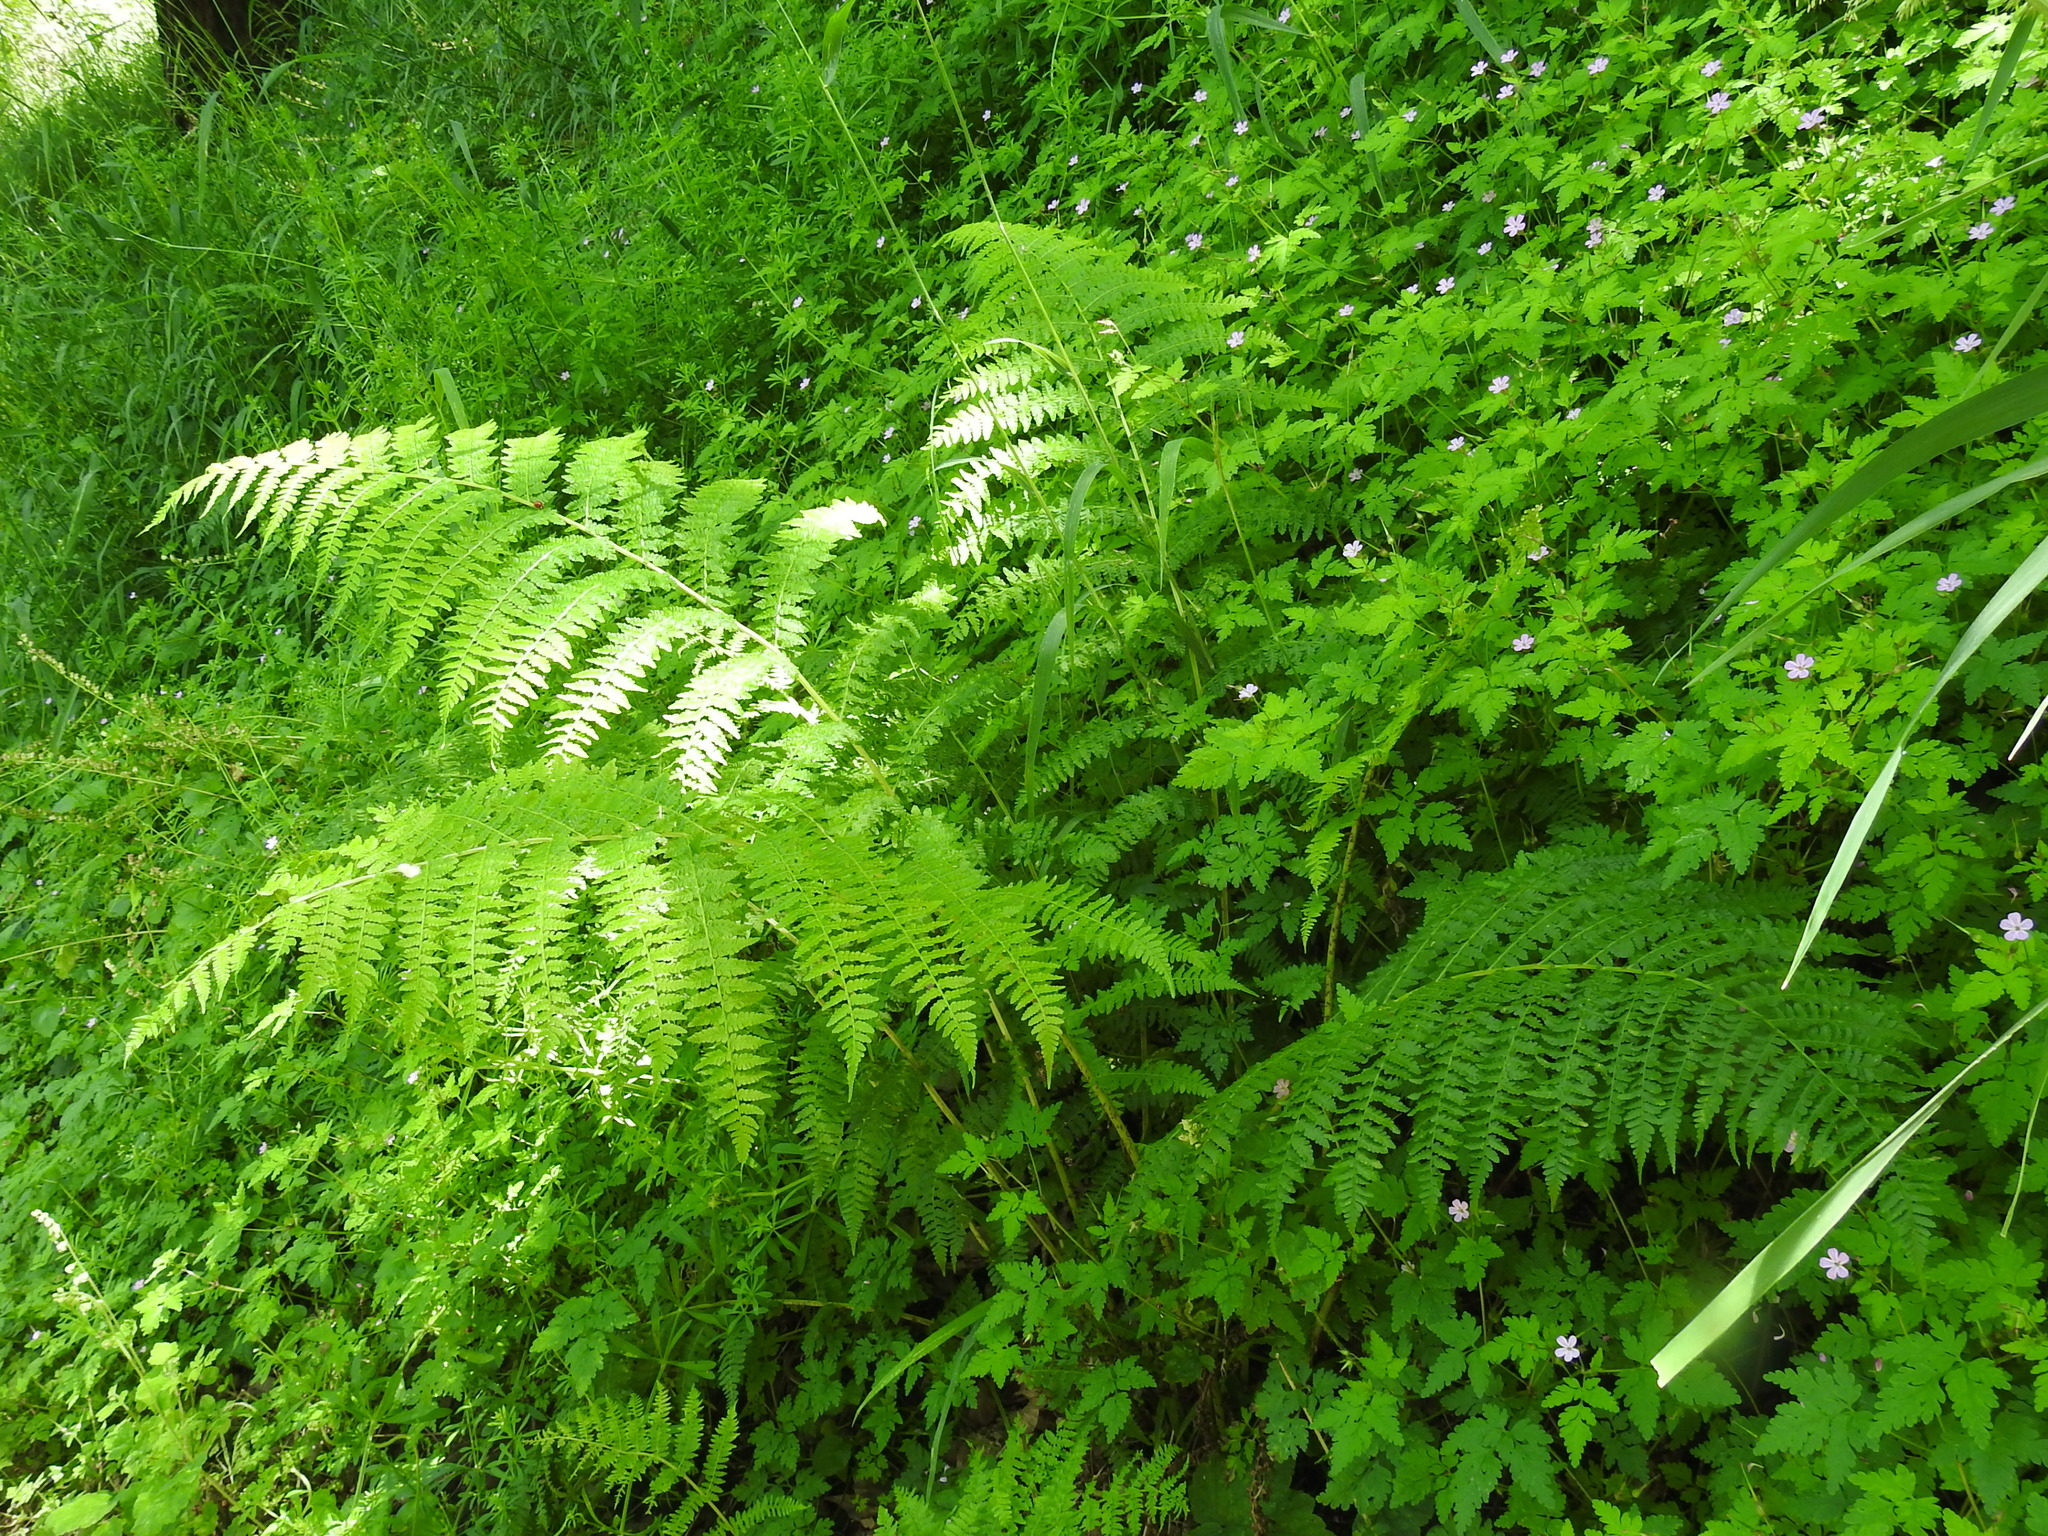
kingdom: Plantae
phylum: Tracheophyta
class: Polypodiopsida
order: Polypodiales
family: Athyriaceae
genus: Athyrium
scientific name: Athyrium cyclosorum
